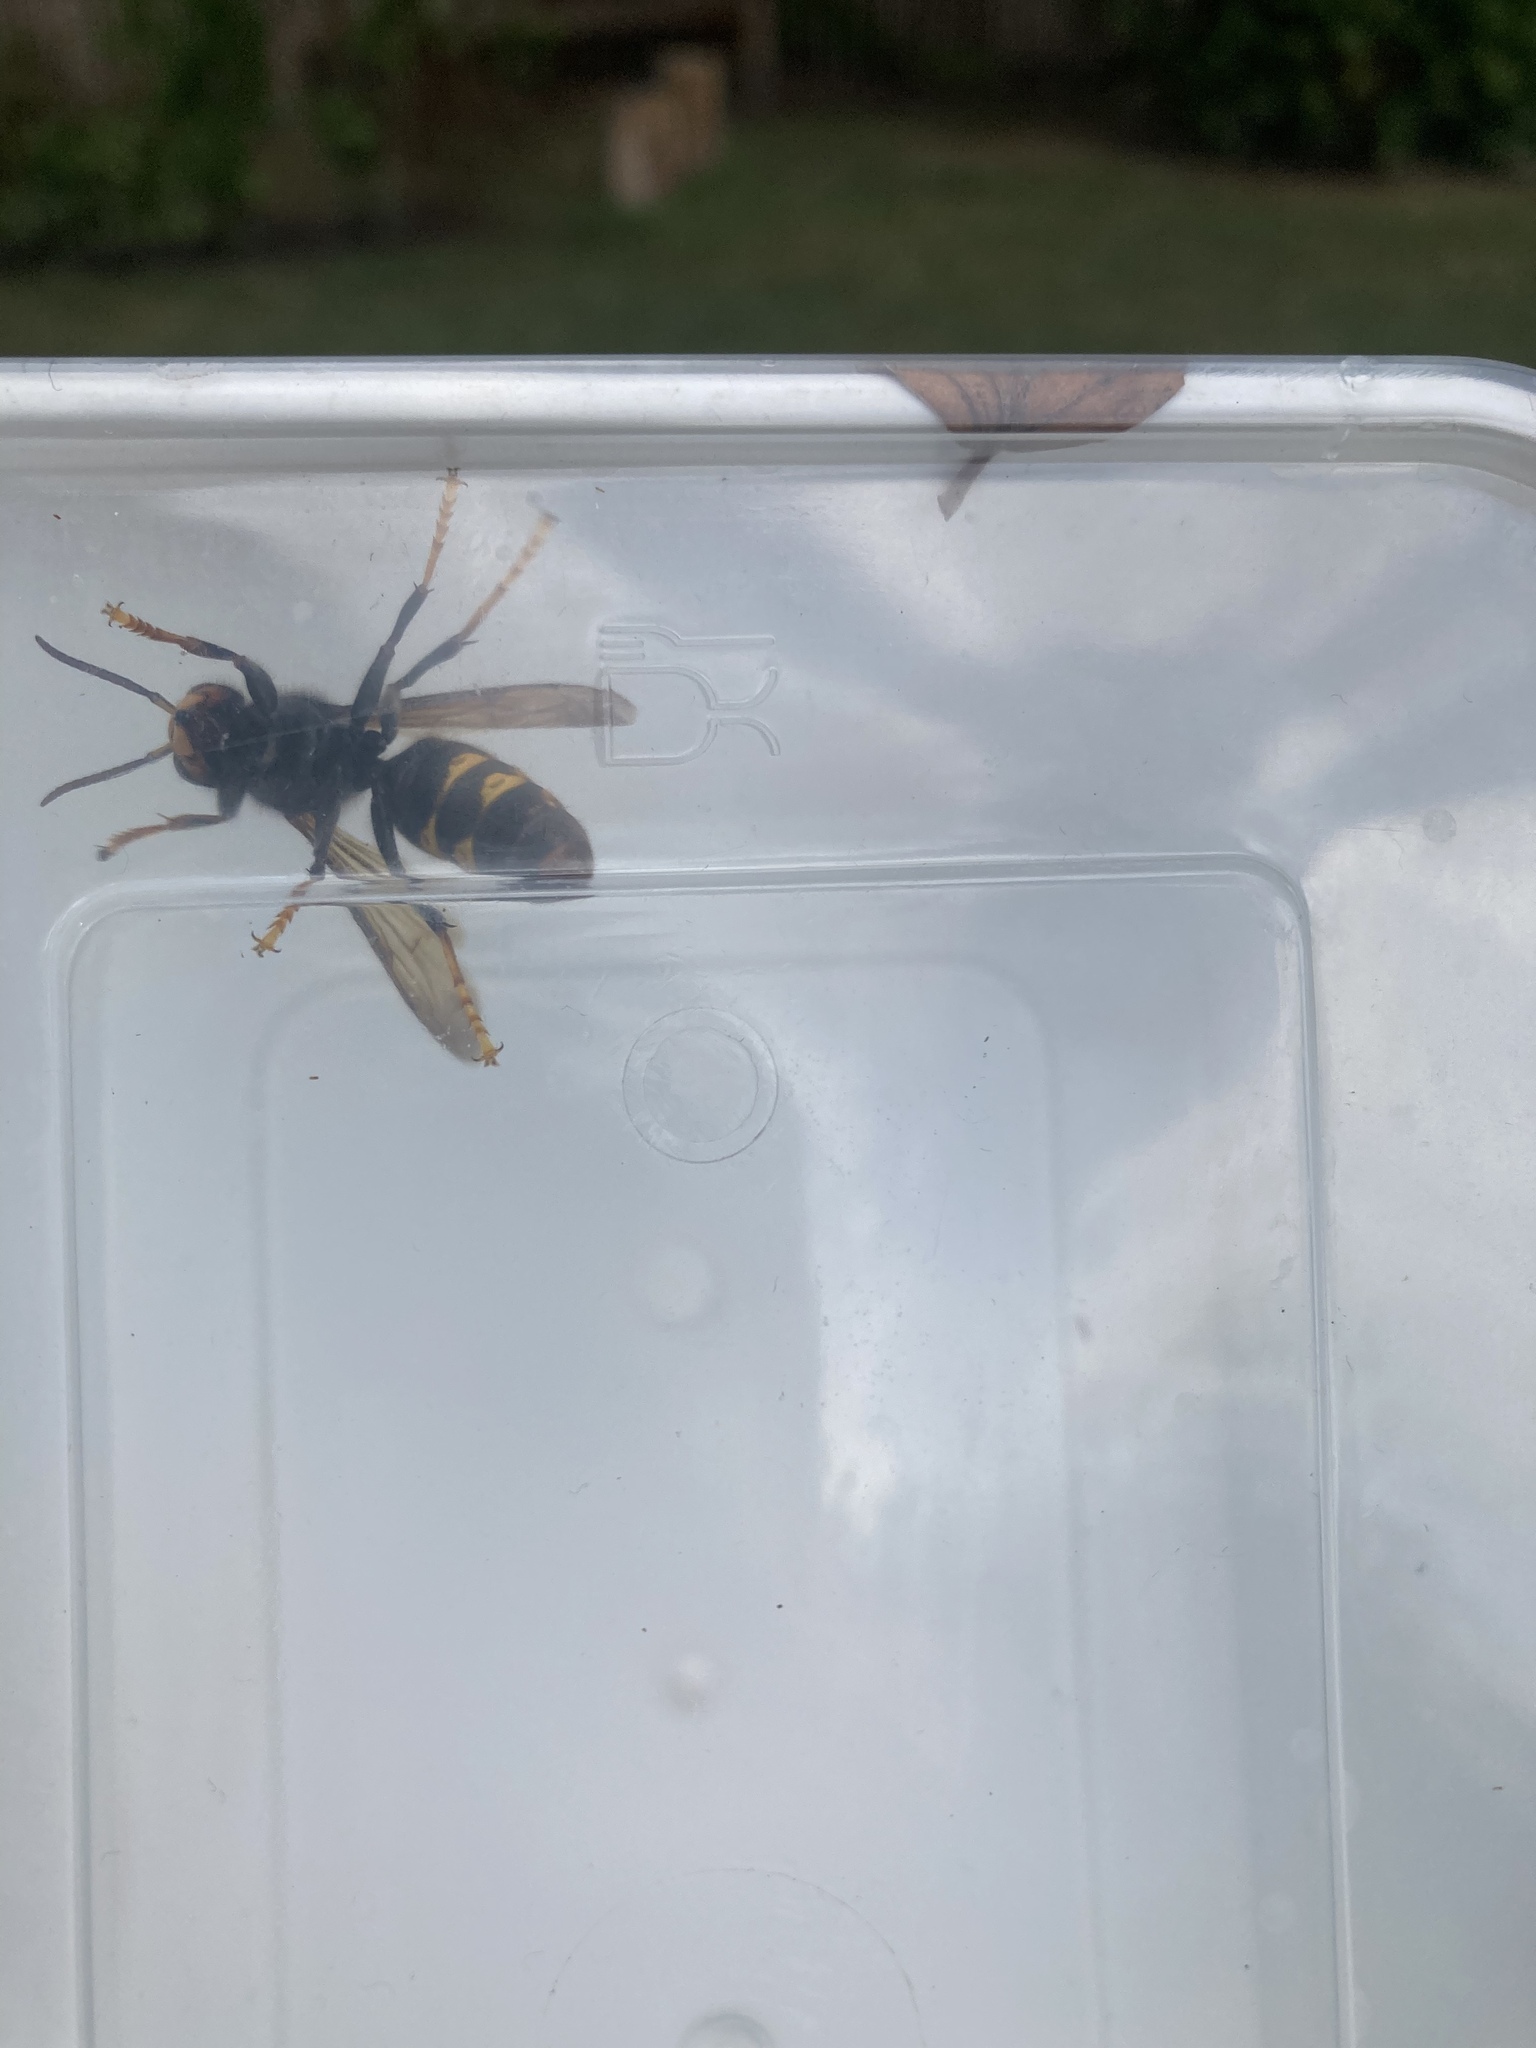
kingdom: Animalia
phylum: Arthropoda
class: Insecta
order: Hymenoptera
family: Vespidae
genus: Vespa
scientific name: Vespa velutina
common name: Asian hornet
